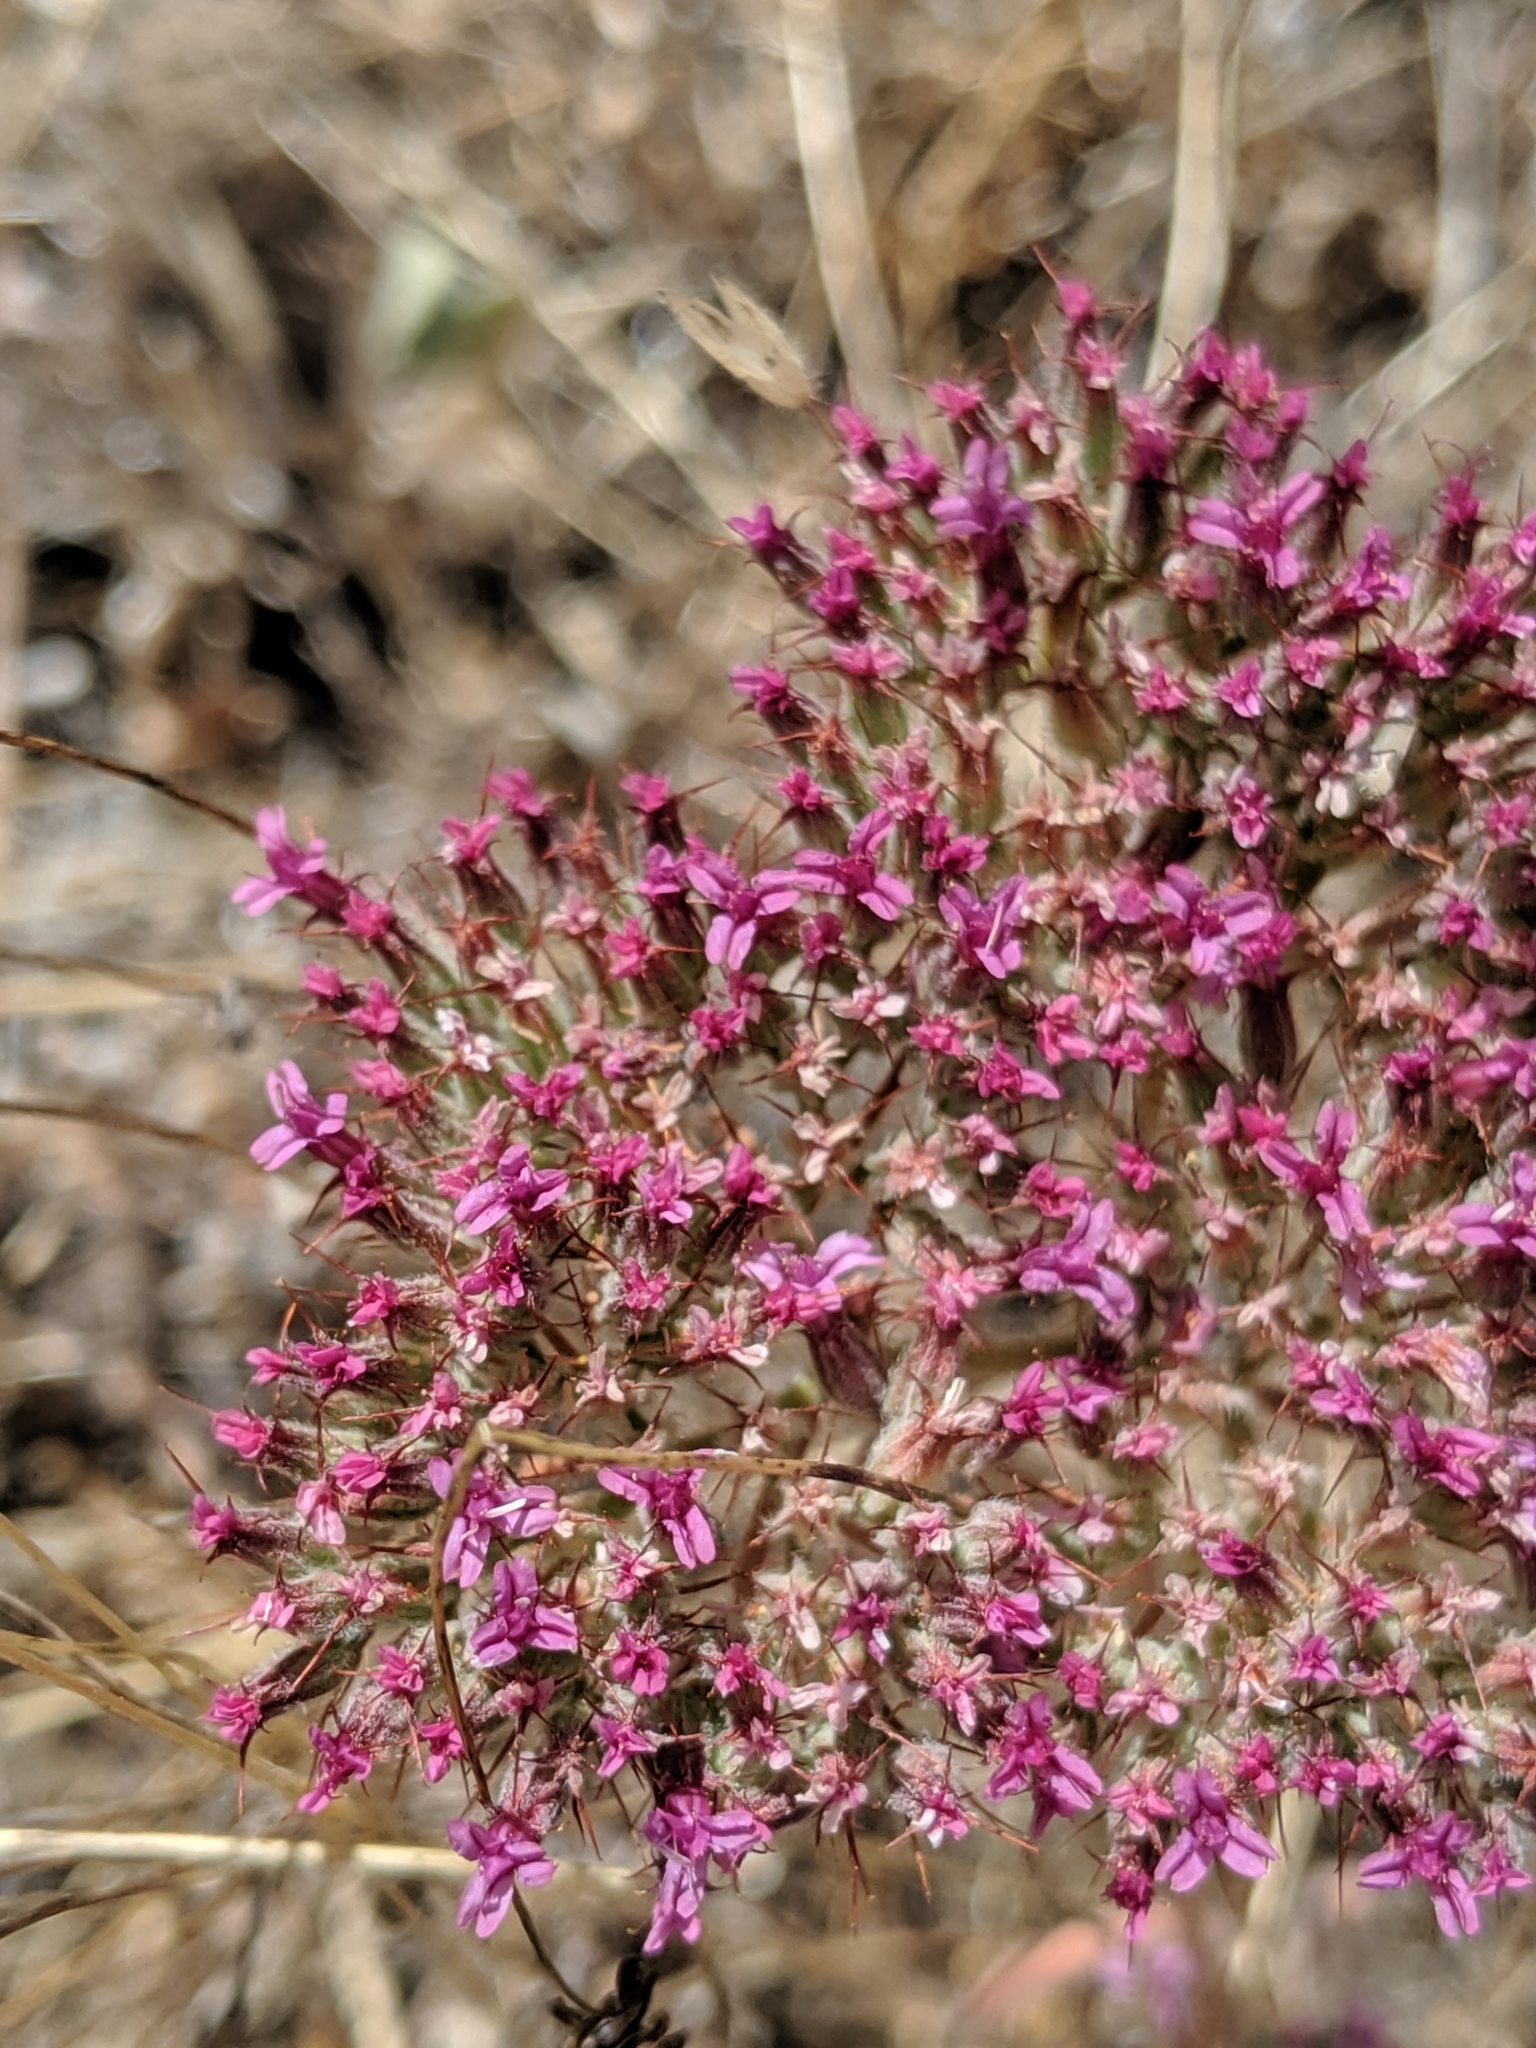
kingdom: Plantae
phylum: Tracheophyta
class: Magnoliopsida
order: Caryophyllales
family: Polygonaceae
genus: Chorizanthe
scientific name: Chorizanthe biloba
